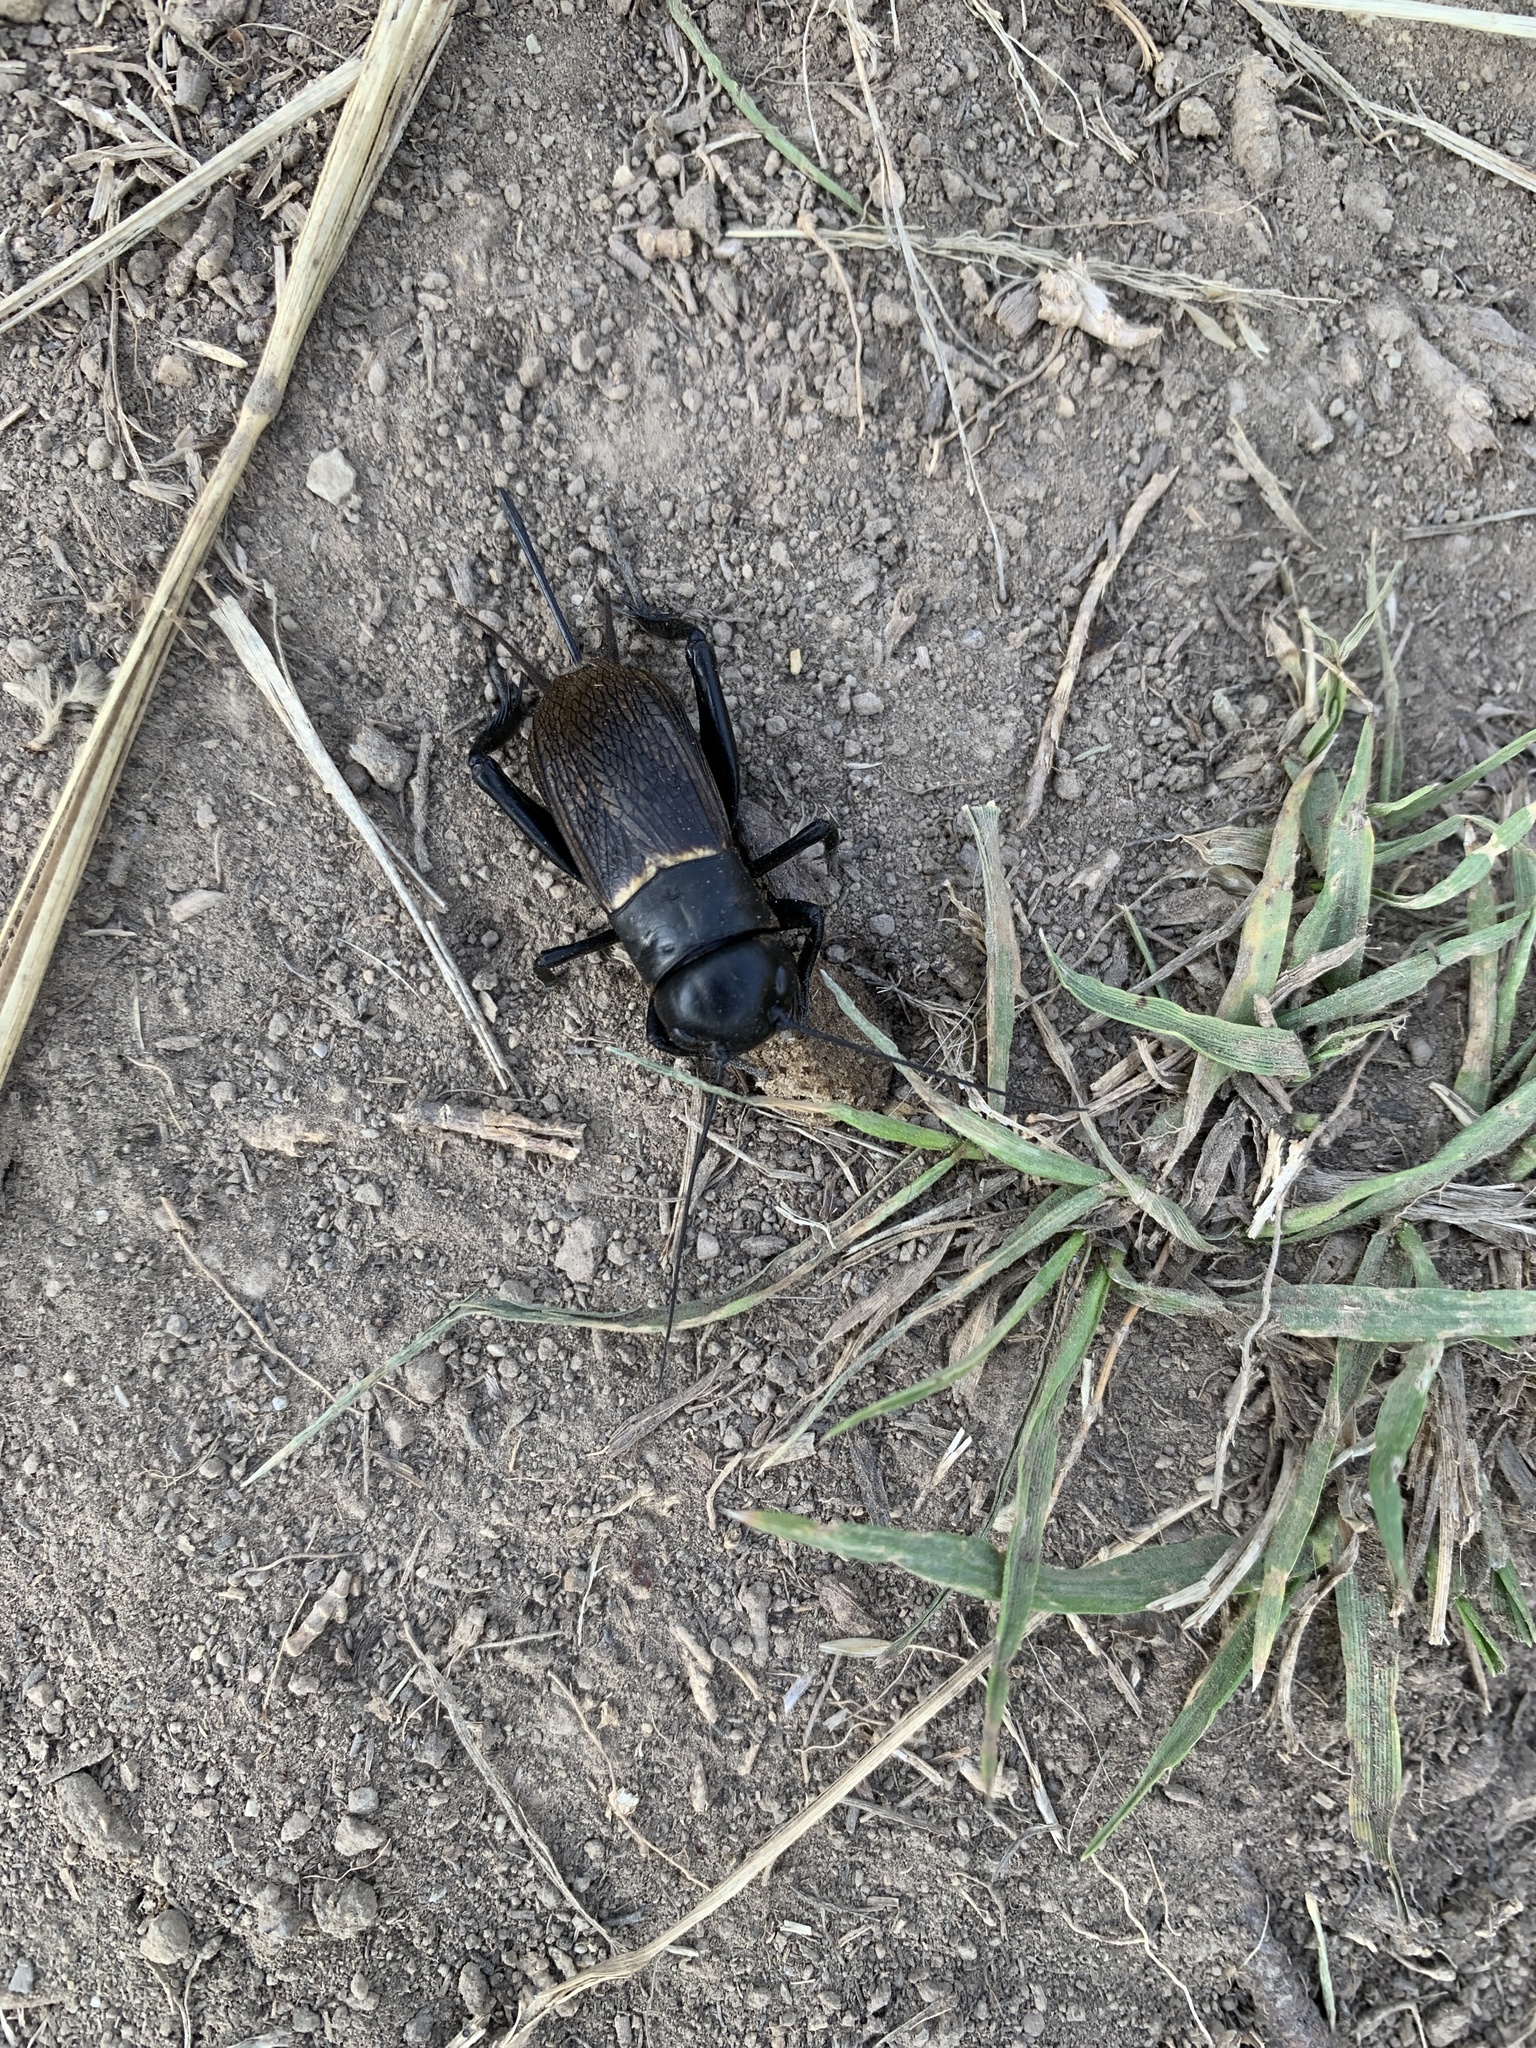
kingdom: Animalia
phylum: Arthropoda
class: Insecta
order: Orthoptera
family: Gryllidae
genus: Gryllus
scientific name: Gryllus campestris
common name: Field cricket
